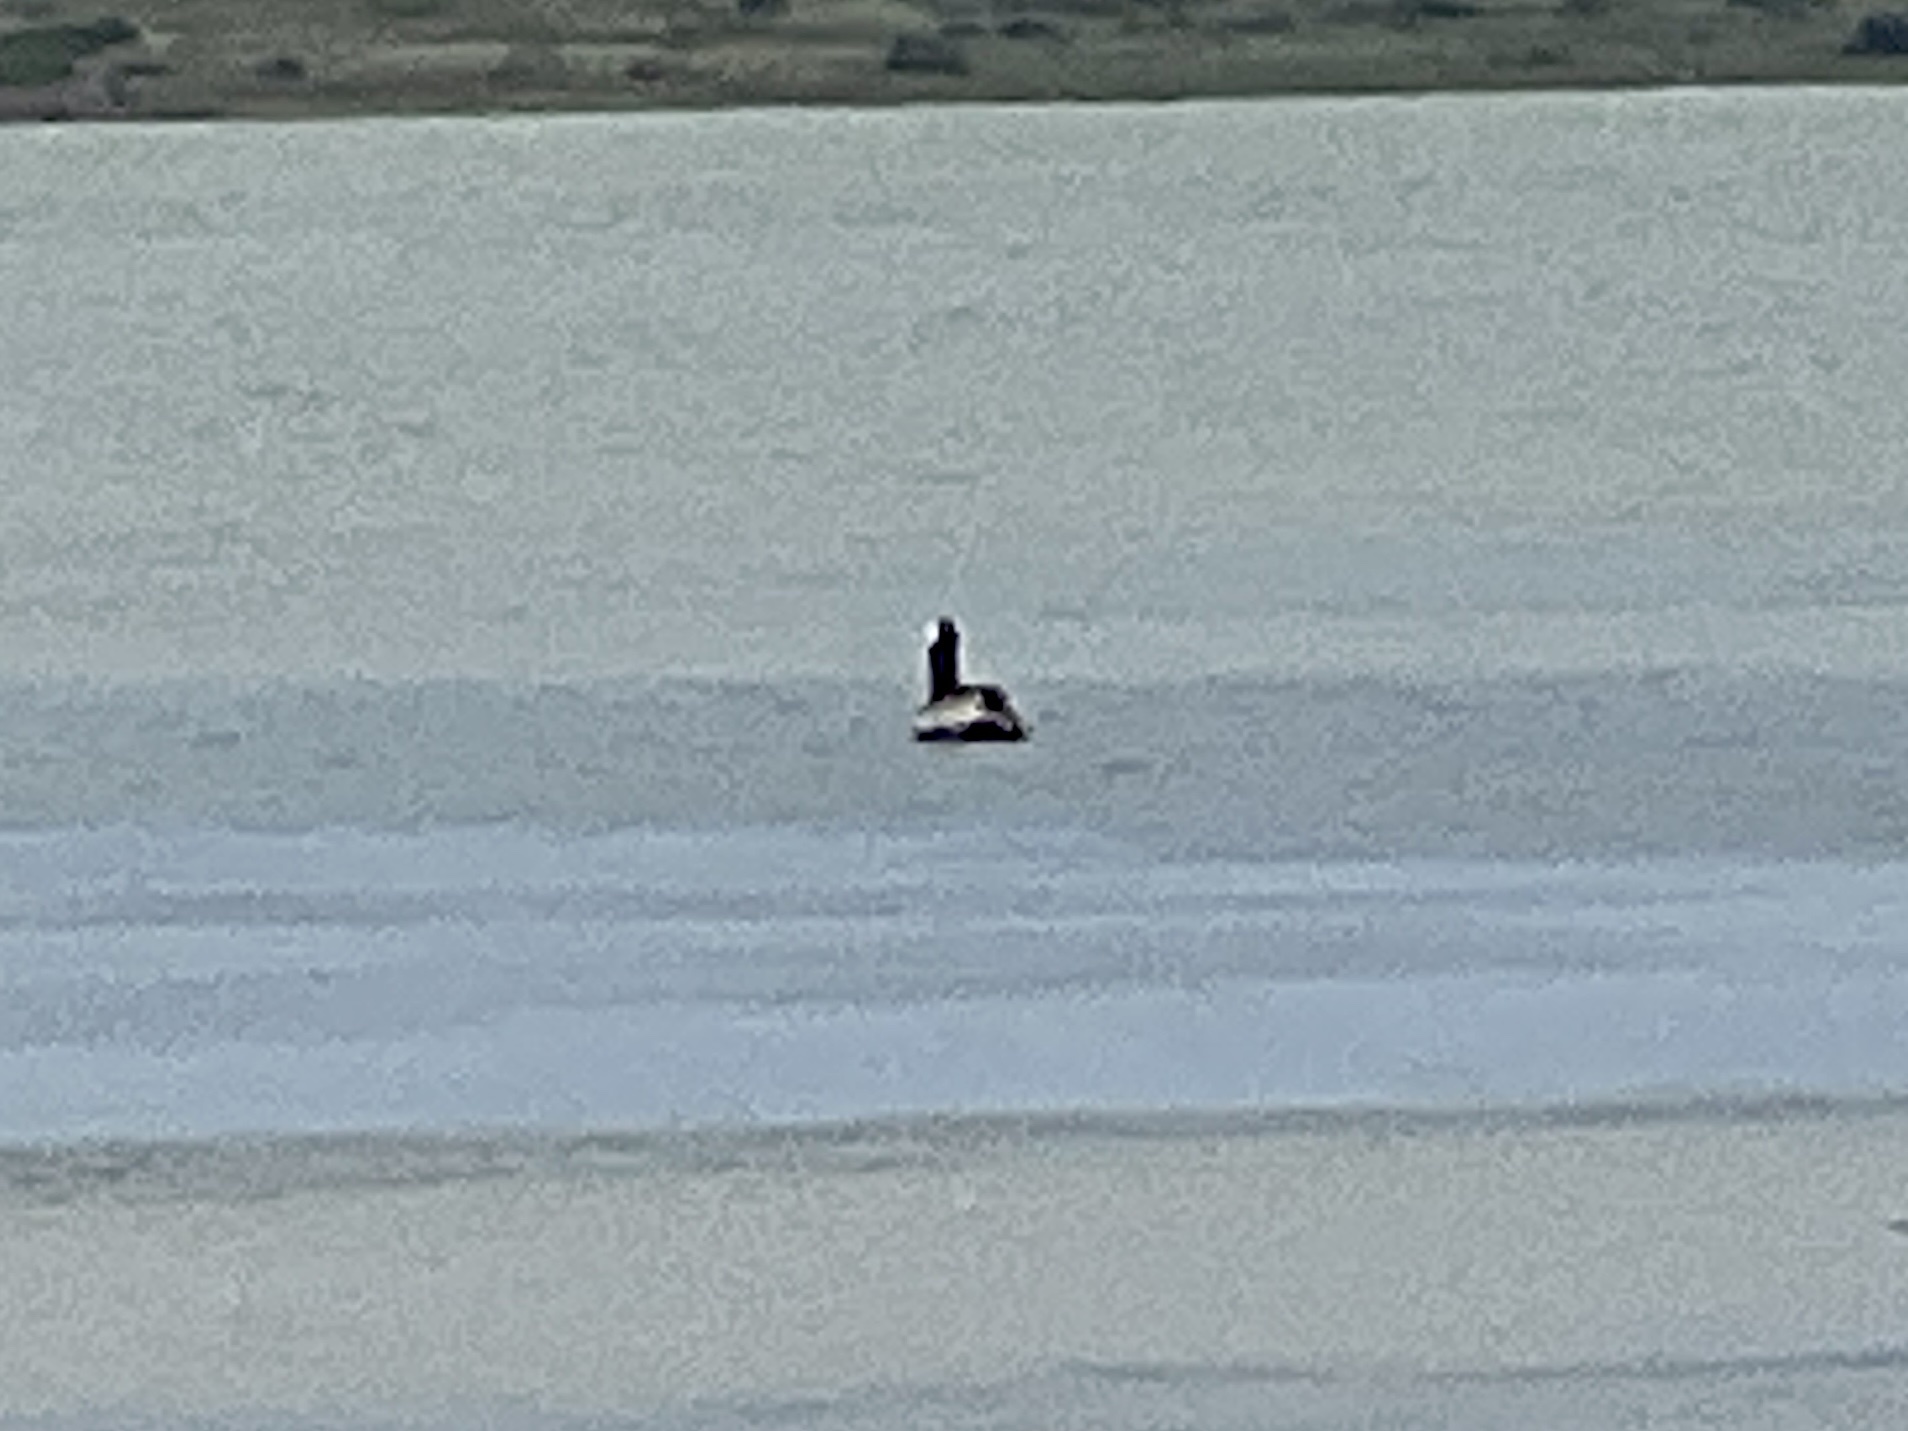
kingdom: Animalia
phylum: Chordata
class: Aves
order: Pelecaniformes
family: Pelecanidae
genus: Pelecanus
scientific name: Pelecanus occidentalis
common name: Brown pelican
